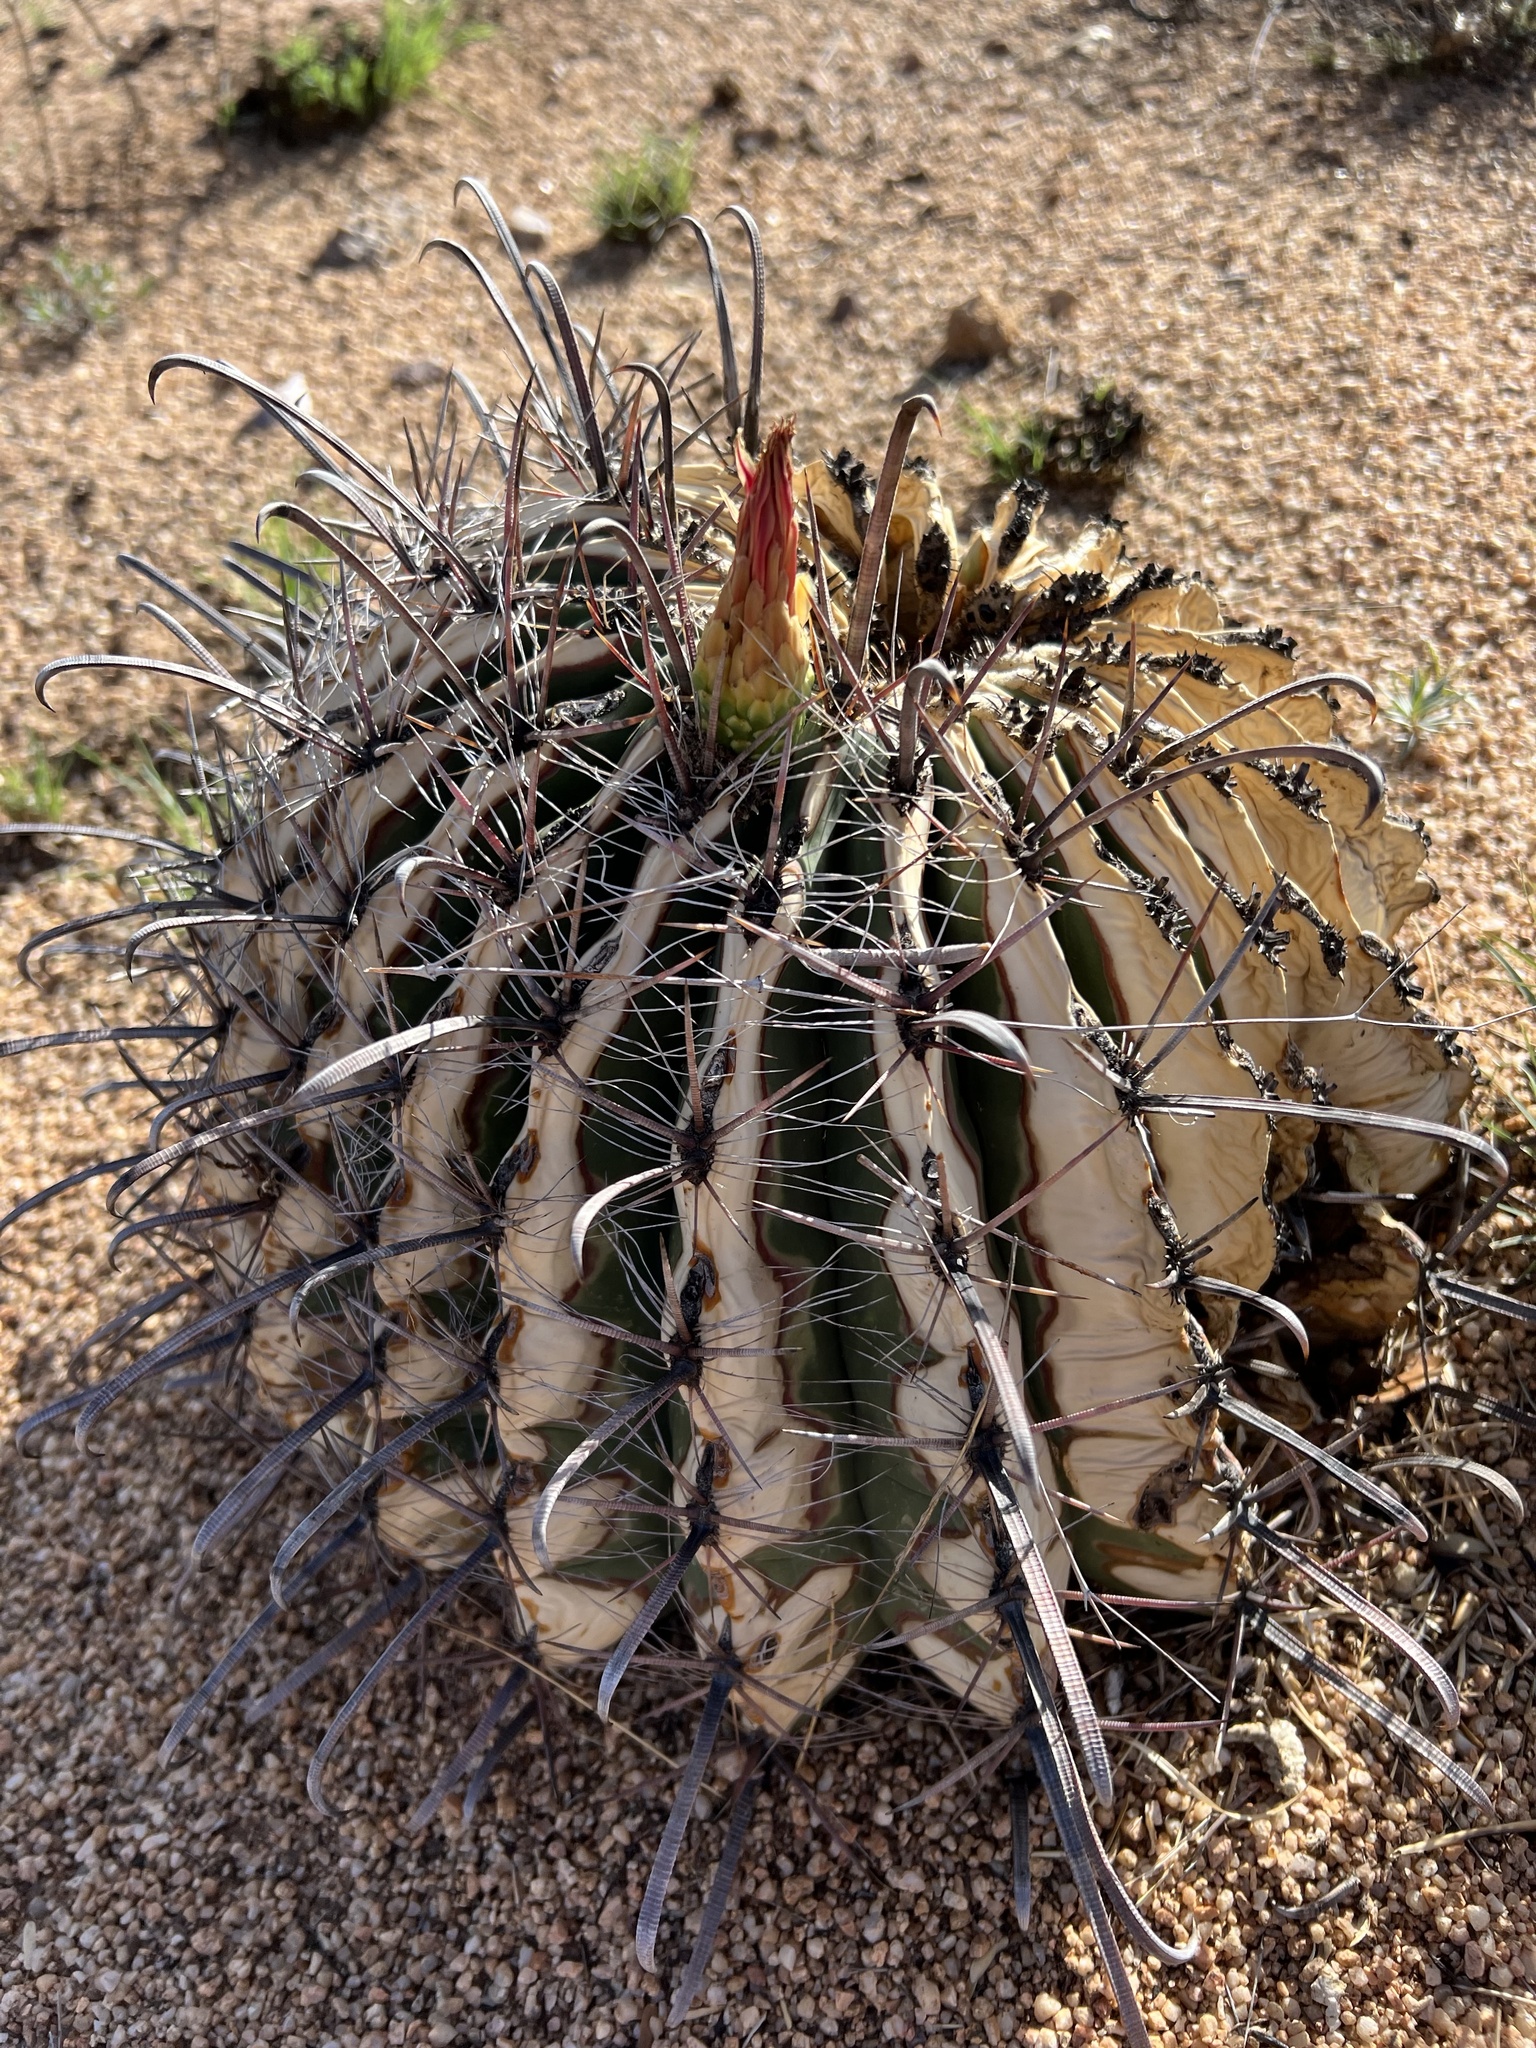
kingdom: Plantae
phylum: Tracheophyta
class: Magnoliopsida
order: Caryophyllales
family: Cactaceae
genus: Ferocactus
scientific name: Ferocactus wislizeni
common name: Candy barrel cactus
